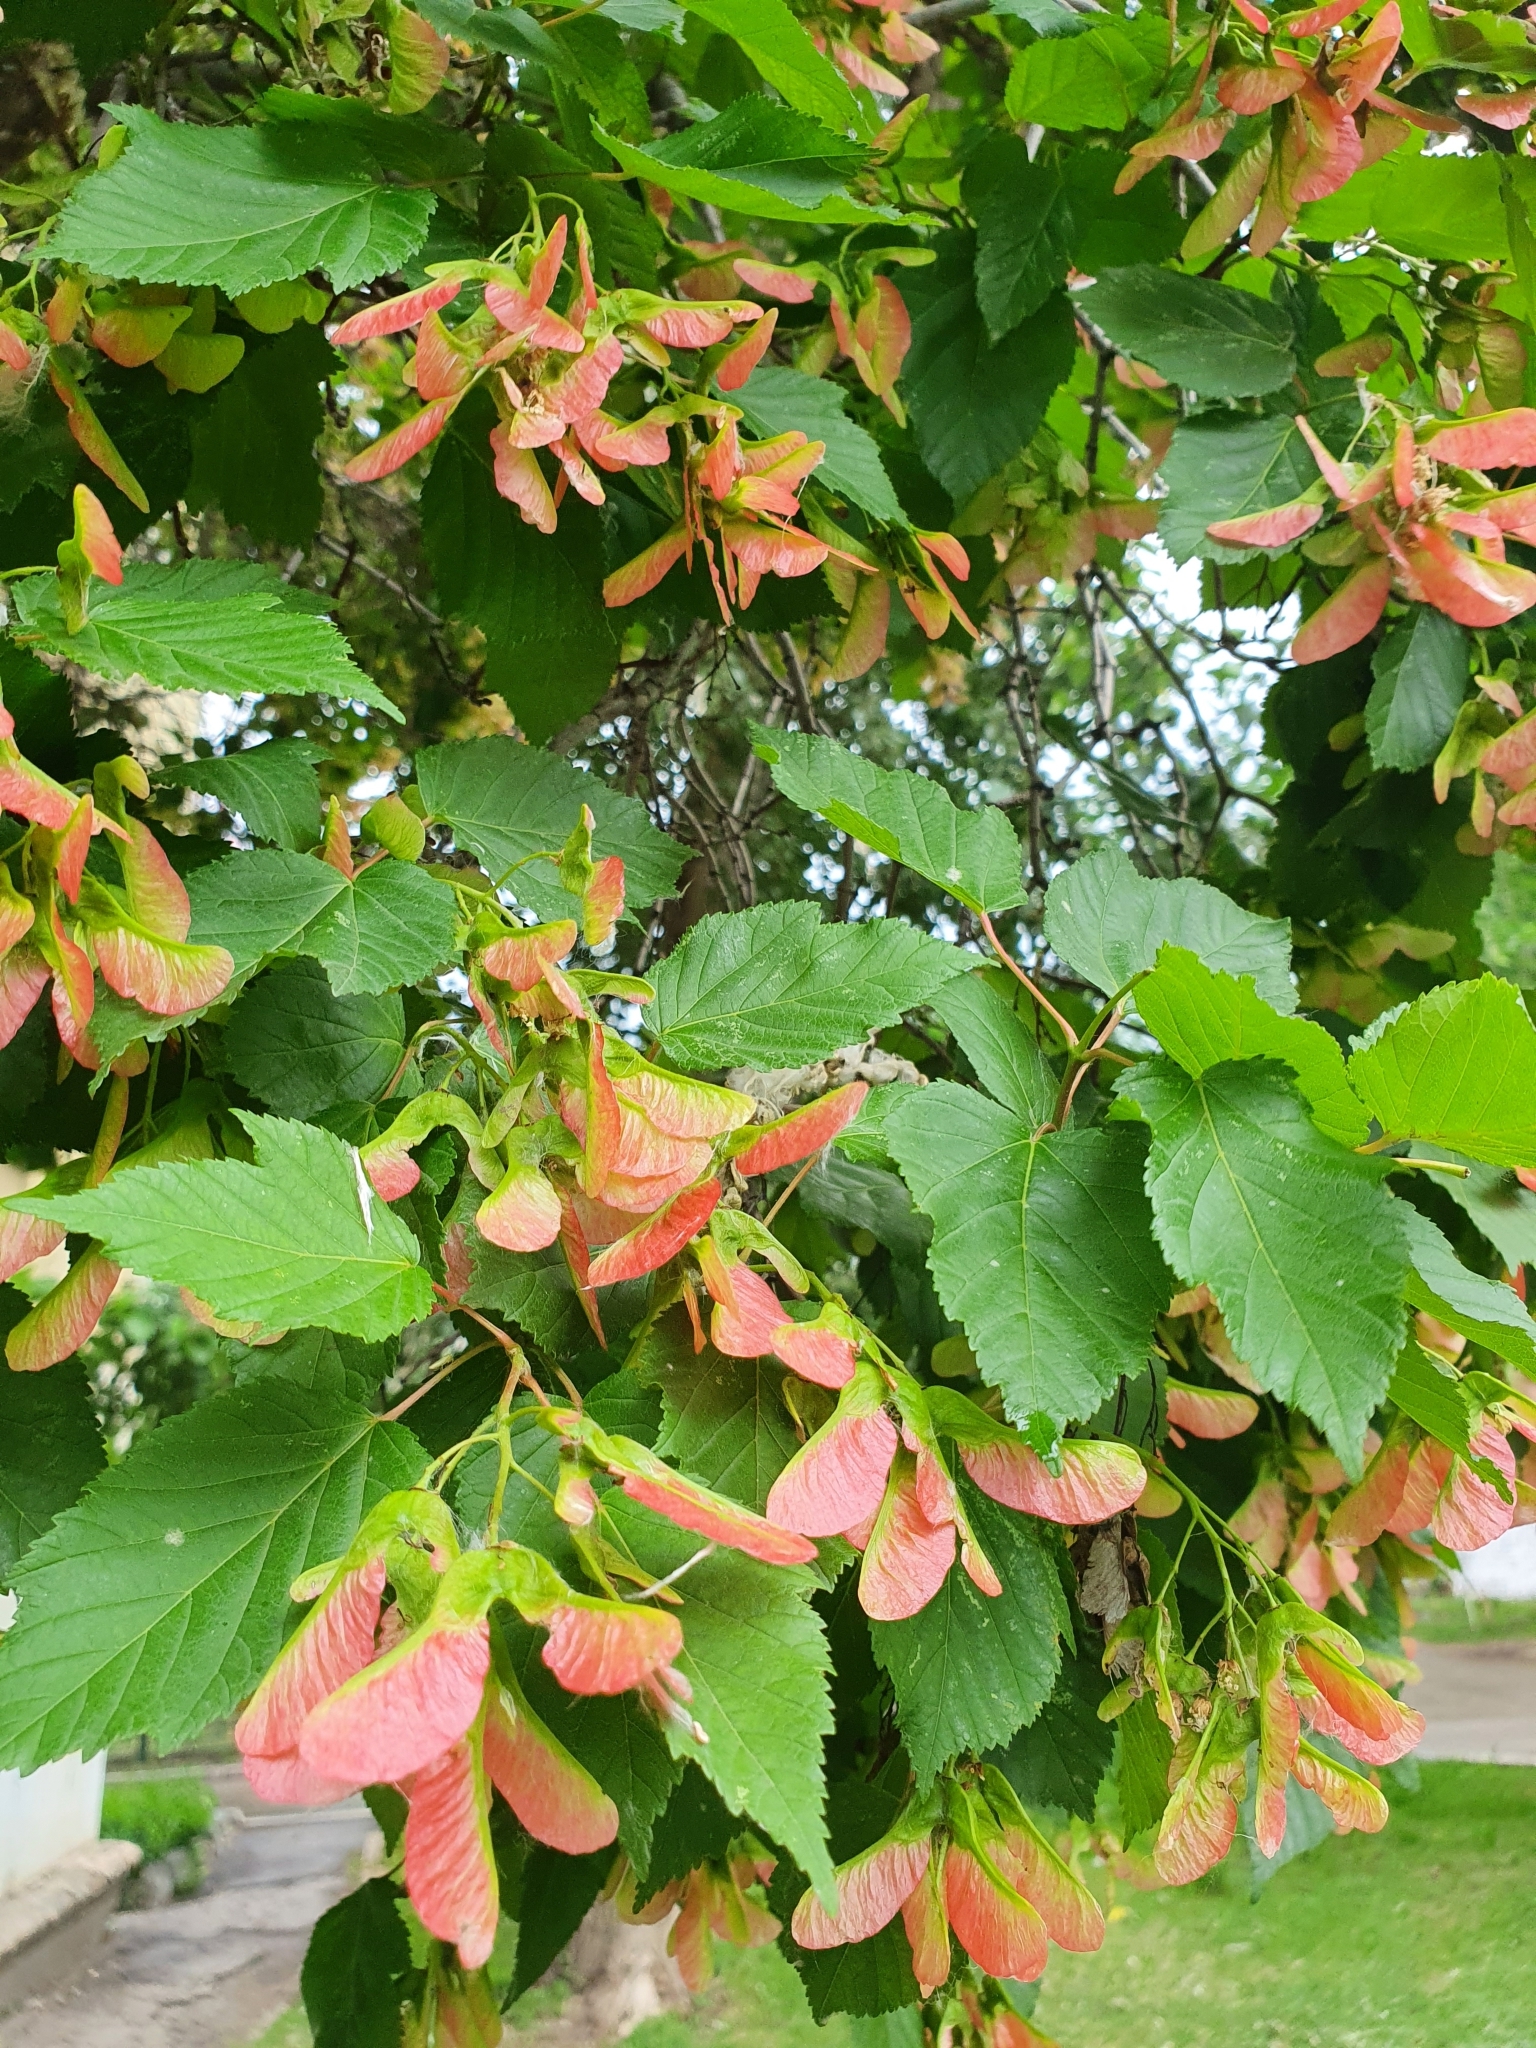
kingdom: Plantae
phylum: Tracheophyta
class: Magnoliopsida
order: Sapindales
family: Sapindaceae
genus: Acer
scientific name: Acer tataricum
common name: Tartar maple
